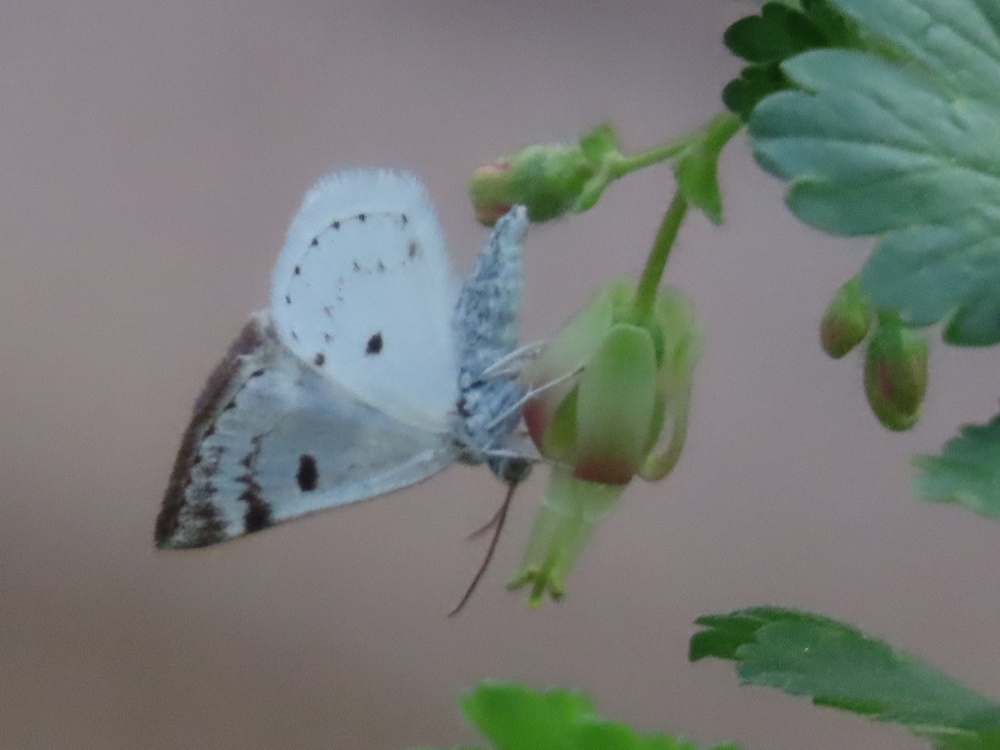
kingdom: Animalia
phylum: Arthropoda
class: Insecta
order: Lepidoptera
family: Geometridae
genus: Lomographa
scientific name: Lomographa semiclarata
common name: Bluish spring moth
